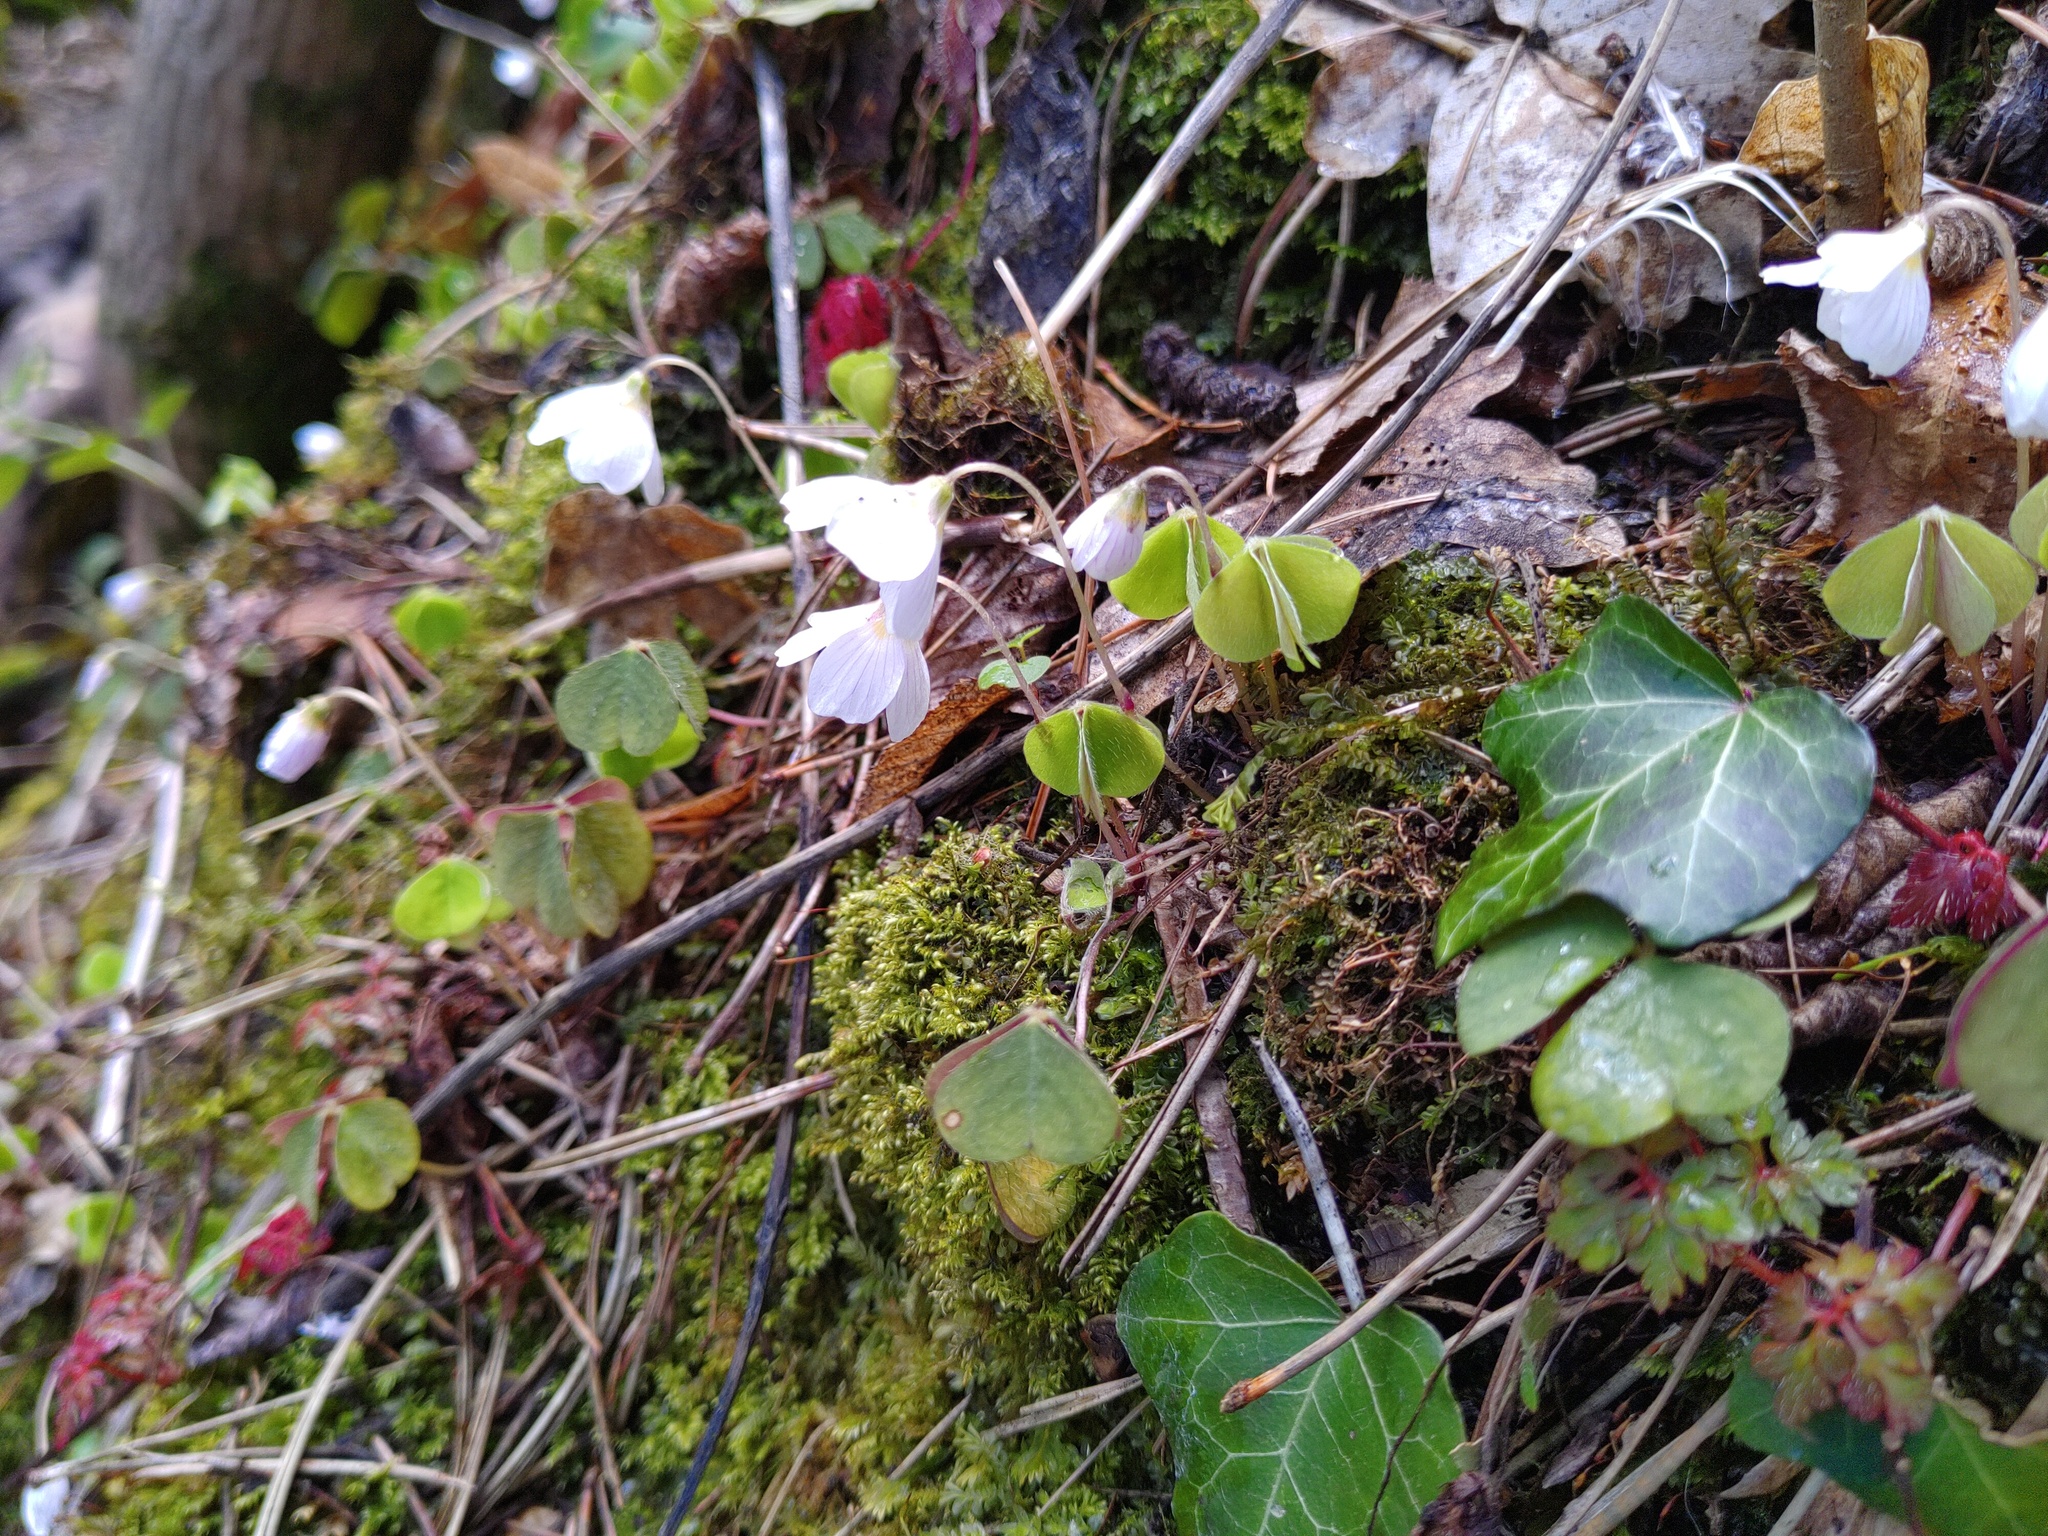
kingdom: Plantae
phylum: Tracheophyta
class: Magnoliopsida
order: Oxalidales
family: Oxalidaceae
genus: Oxalis
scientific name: Oxalis acetosella
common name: Wood-sorrel
